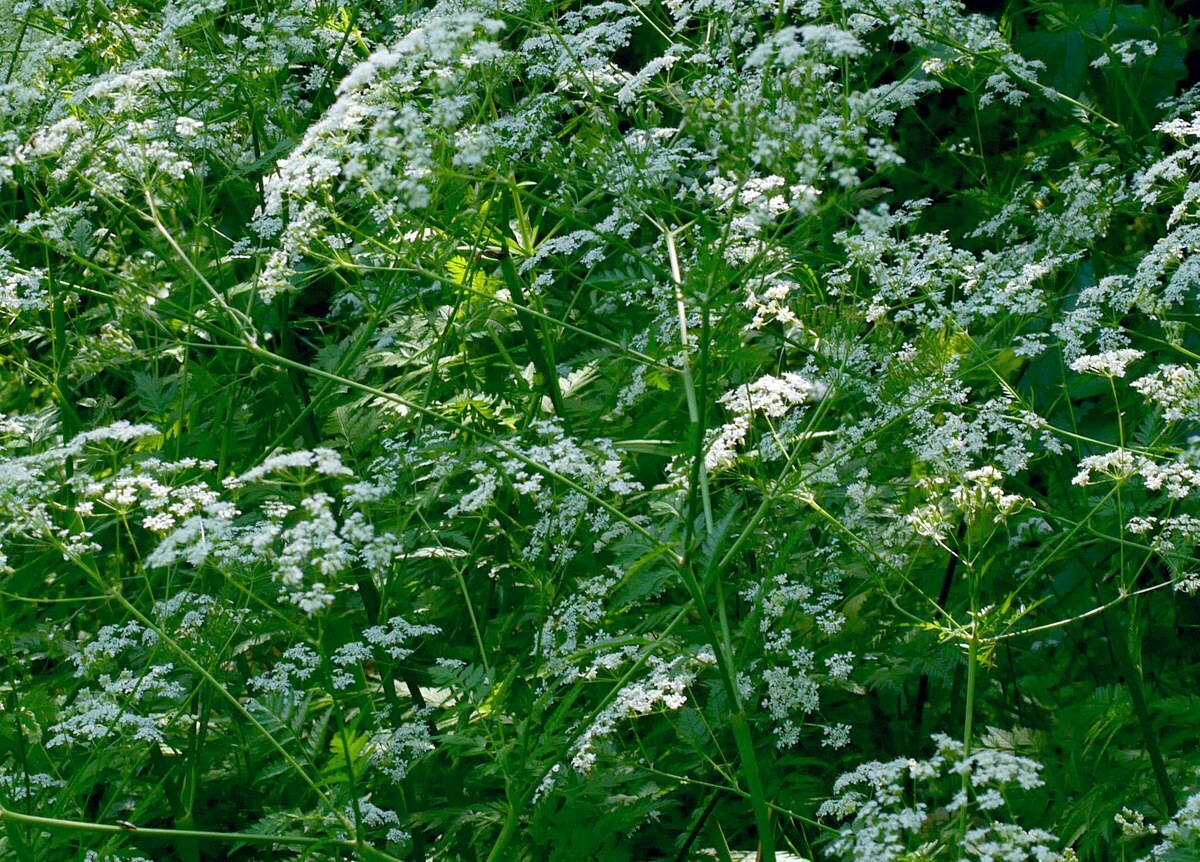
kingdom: Plantae
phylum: Tracheophyta
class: Magnoliopsida
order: Apiales
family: Apiaceae
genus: Anthriscus
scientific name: Anthriscus sylvestris
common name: Cow parsley
